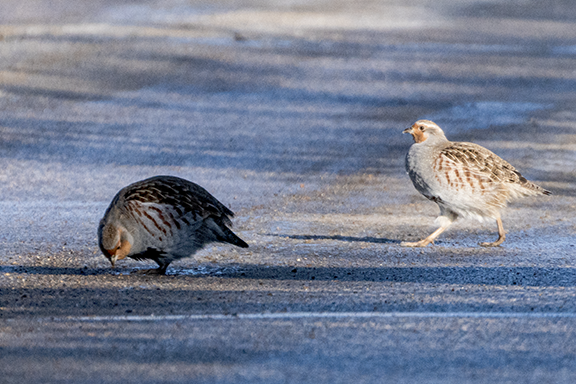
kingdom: Animalia
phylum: Chordata
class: Aves
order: Galliformes
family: Phasianidae
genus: Perdix
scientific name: Perdix perdix
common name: Grey partridge
